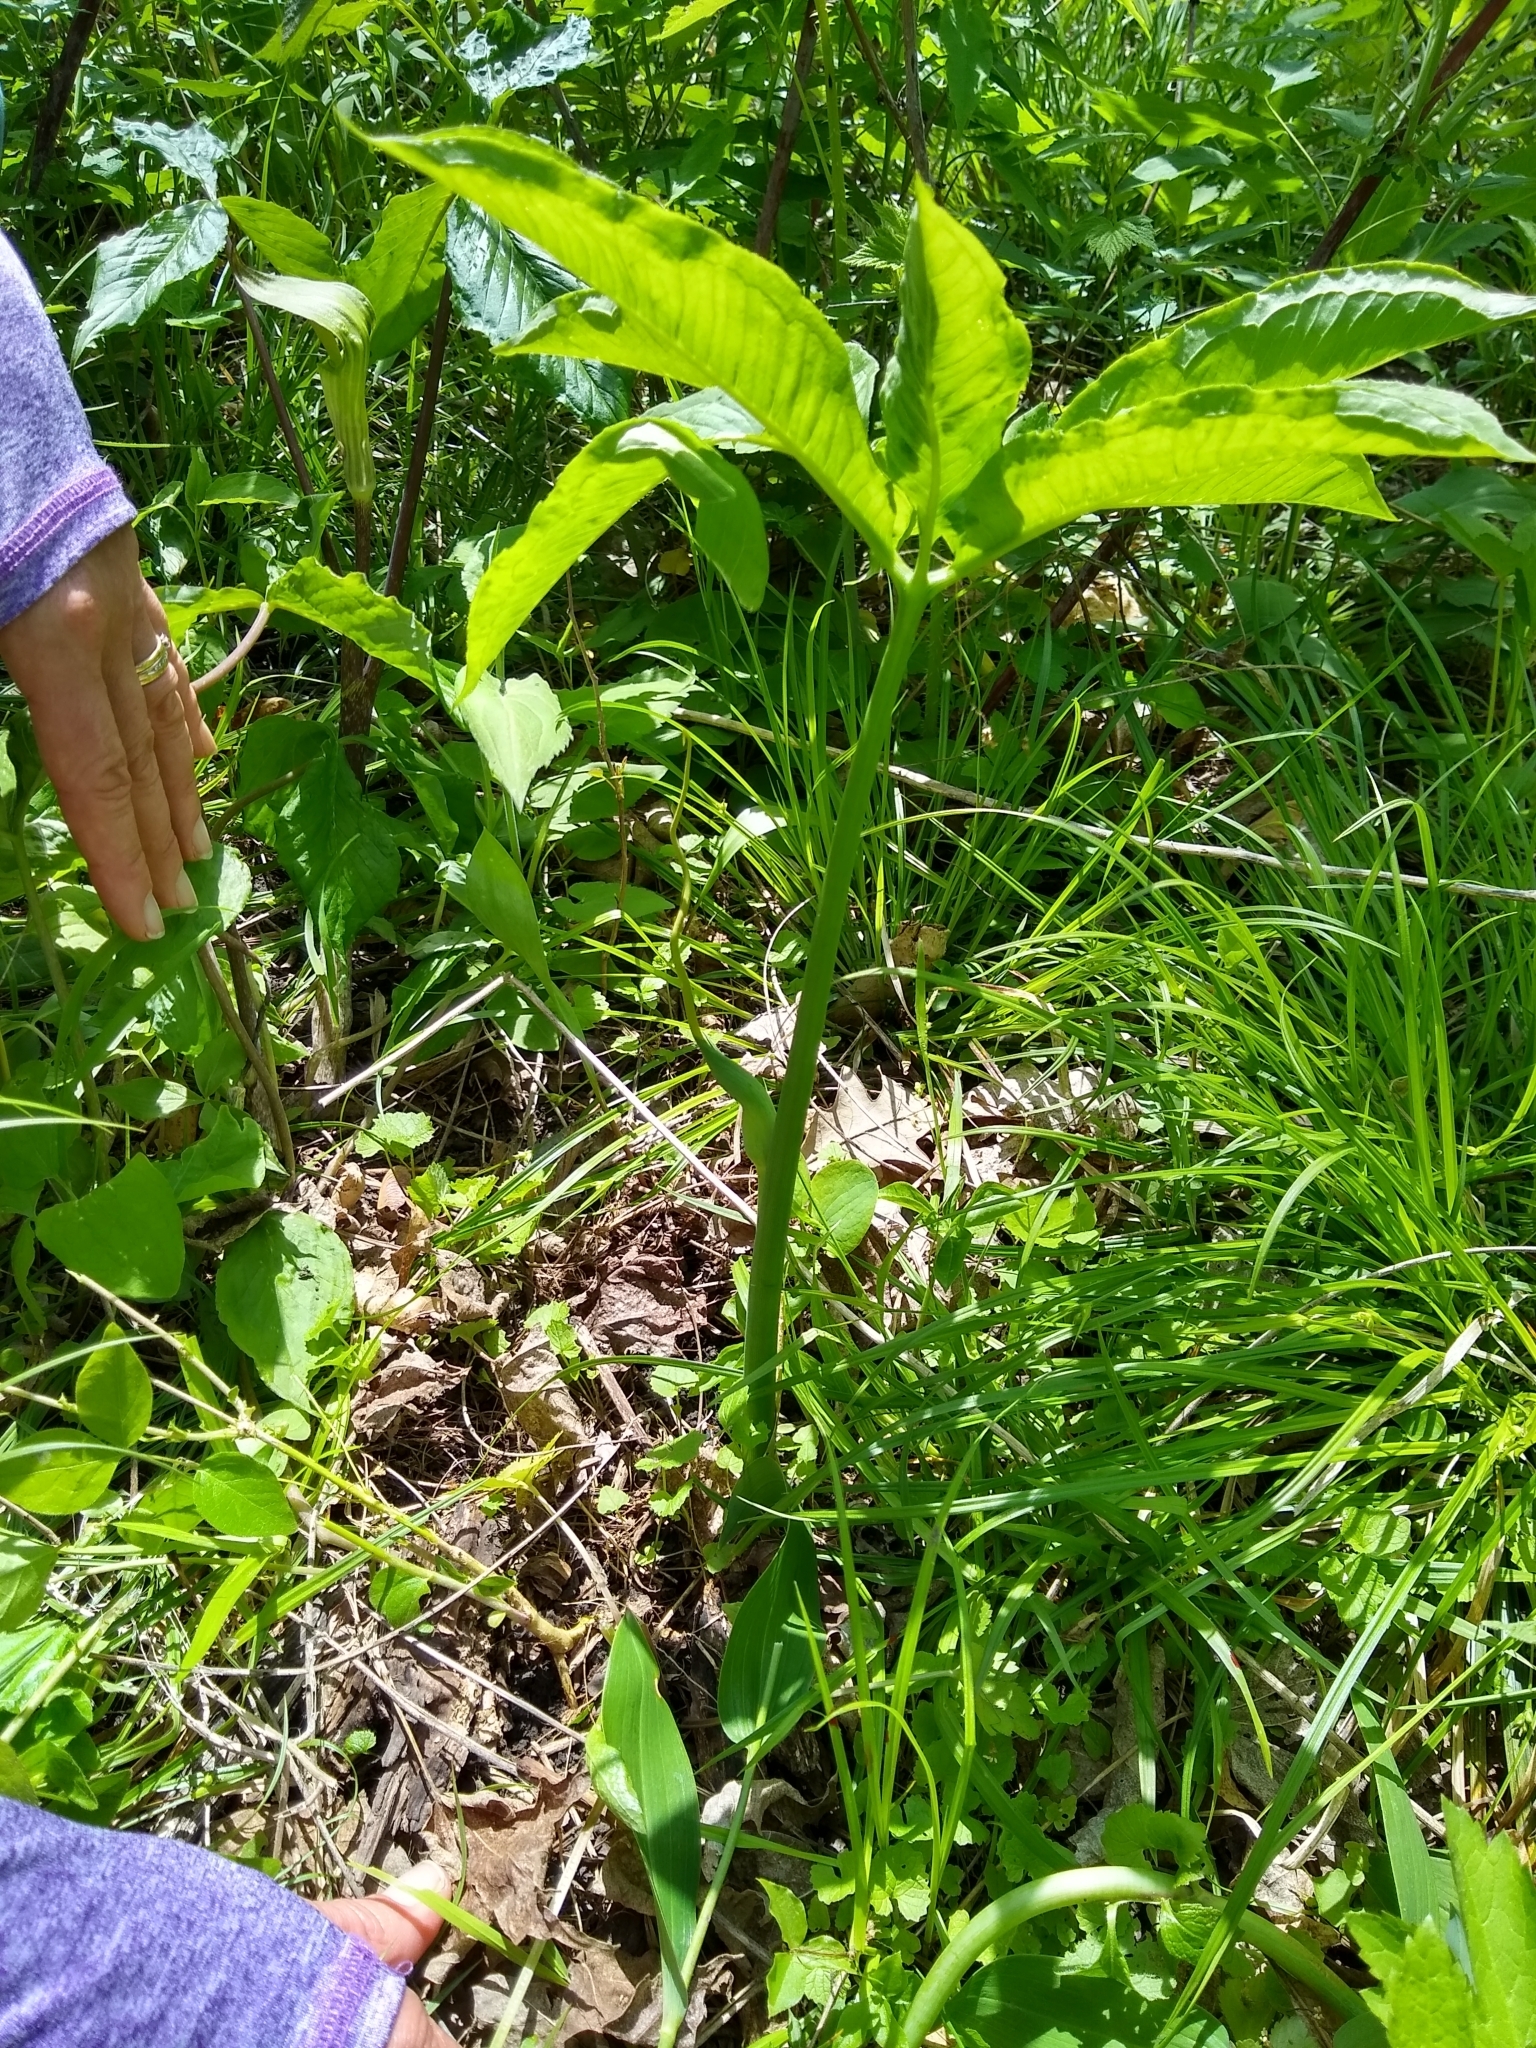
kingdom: Plantae
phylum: Tracheophyta
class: Liliopsida
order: Alismatales
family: Araceae
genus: Arisaema
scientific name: Arisaema dracontium
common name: Dragon-arum
